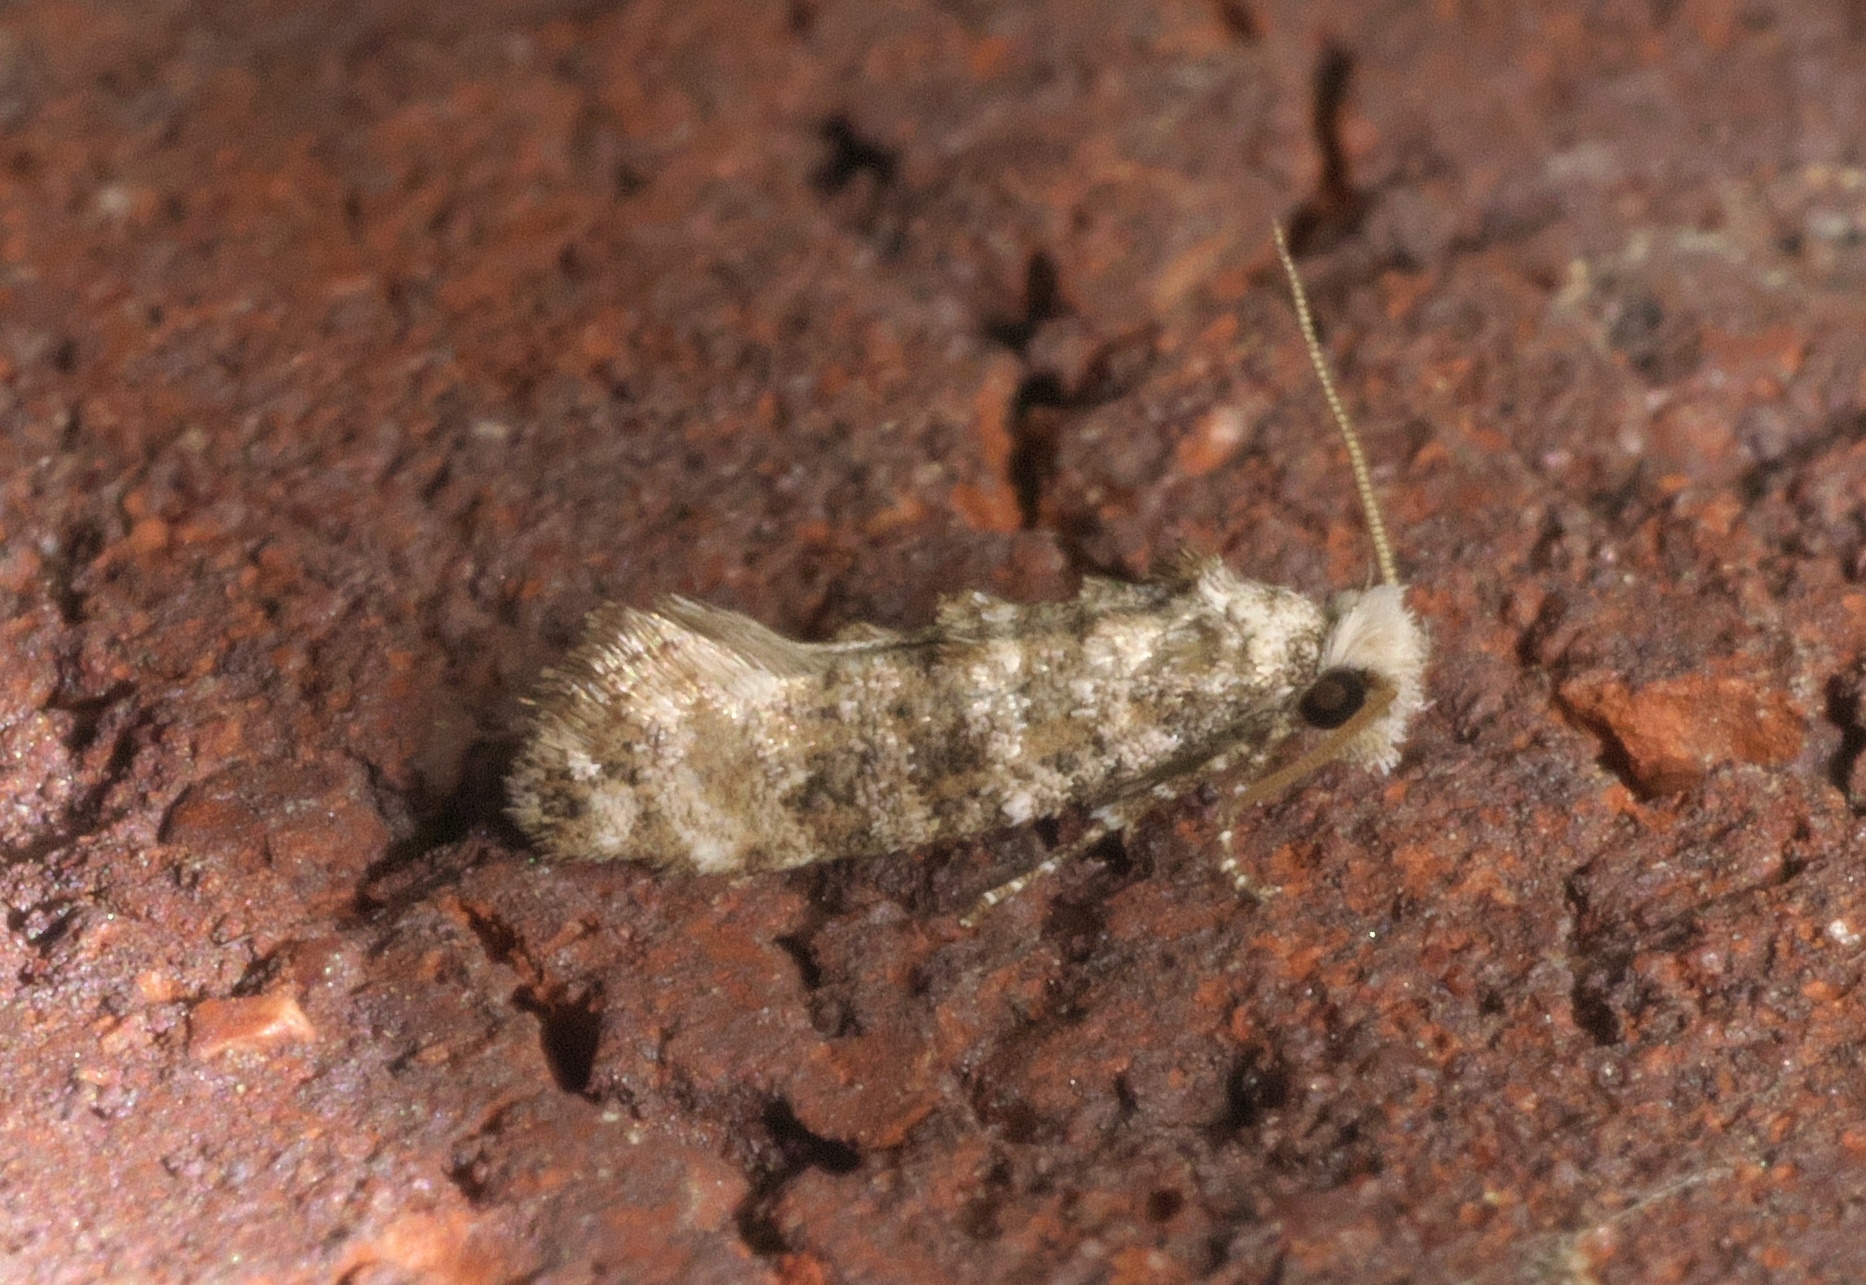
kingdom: Animalia
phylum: Arthropoda
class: Insecta
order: Lepidoptera
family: Tineidae
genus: Xylesthia
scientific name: Xylesthia pruniramiella
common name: Clemens' bark moth
